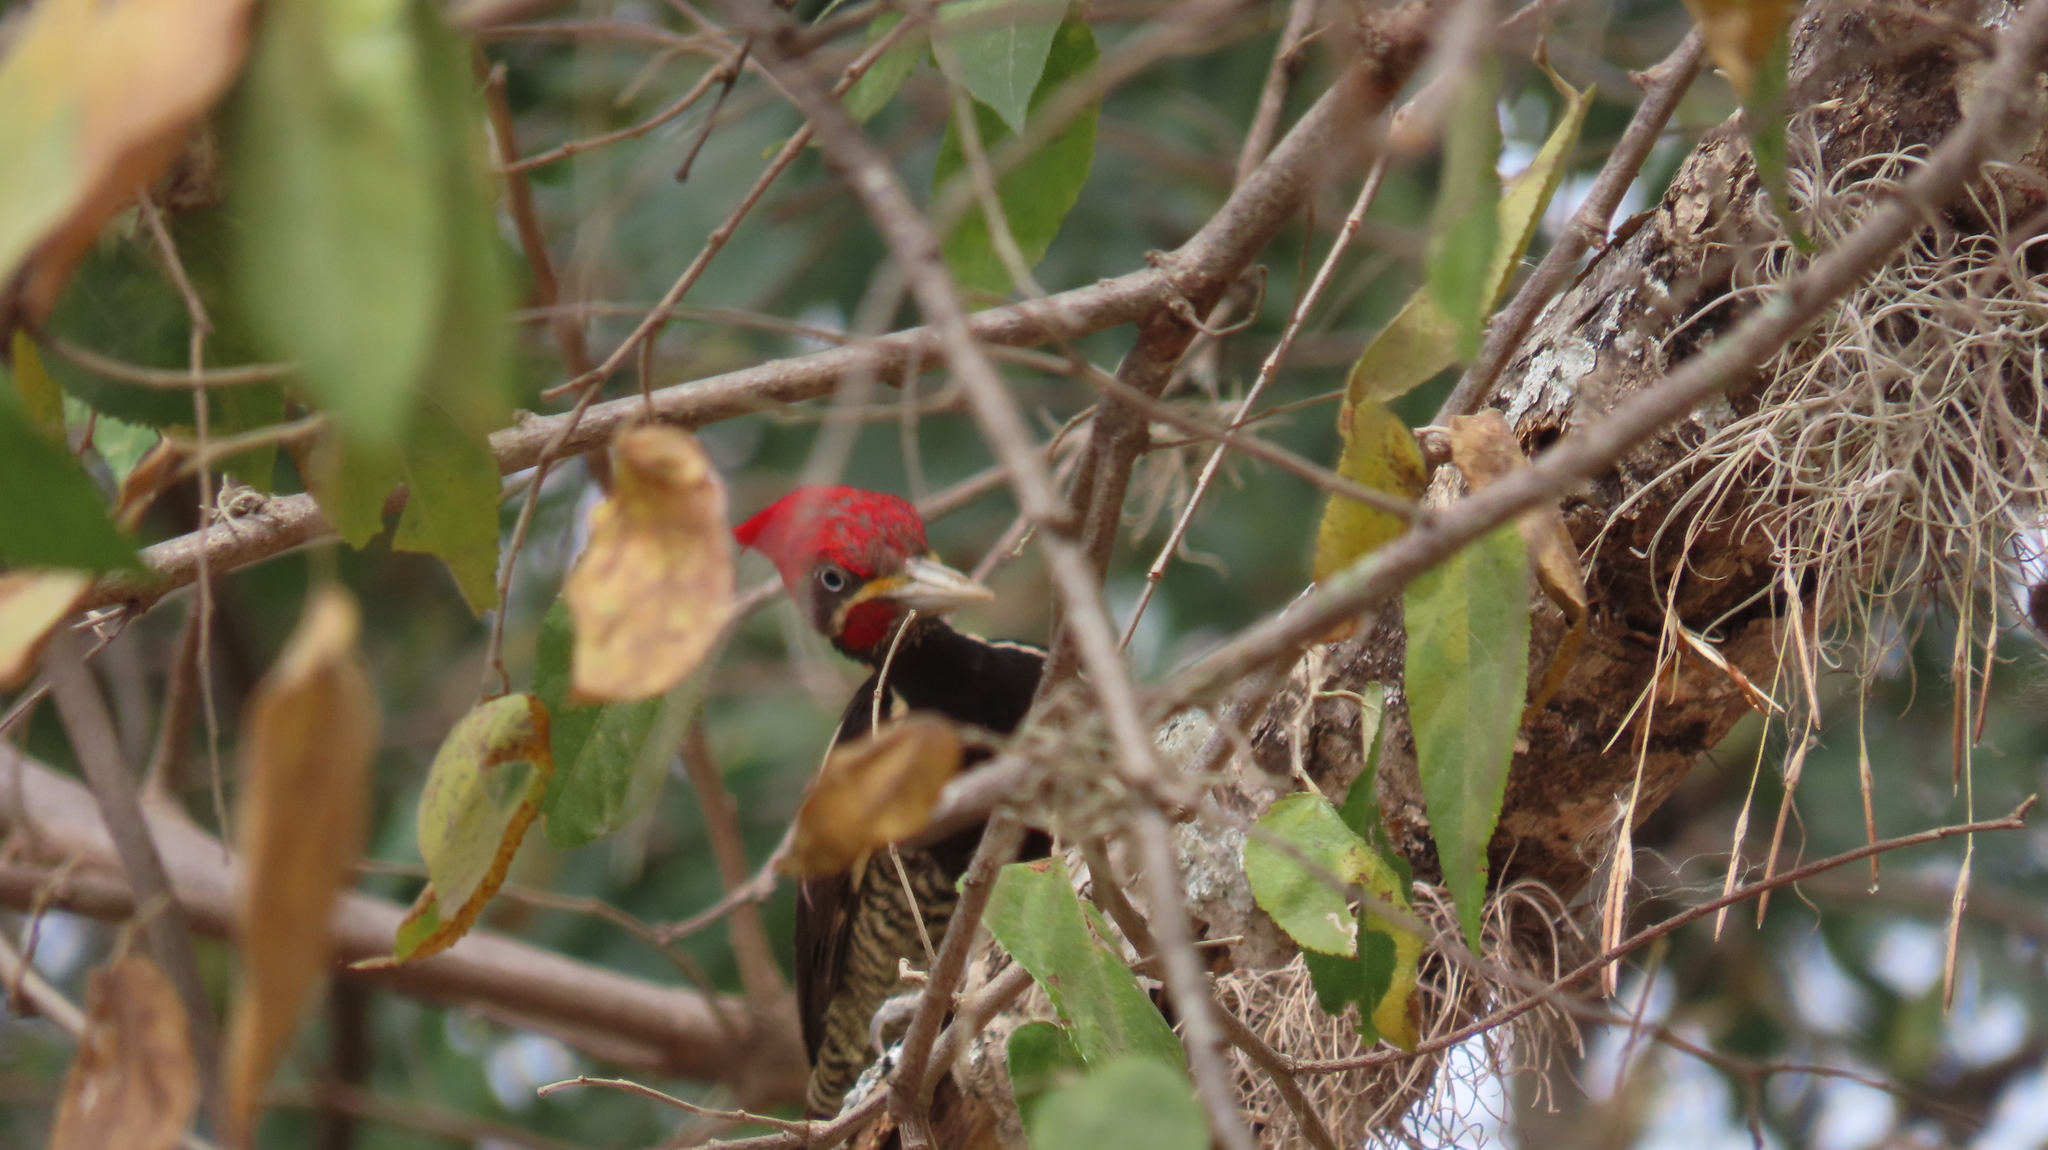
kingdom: Animalia
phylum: Chordata
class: Aves
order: Piciformes
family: Picidae
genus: Dryocopus
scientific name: Dryocopus lineatus
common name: Lineated woodpecker
